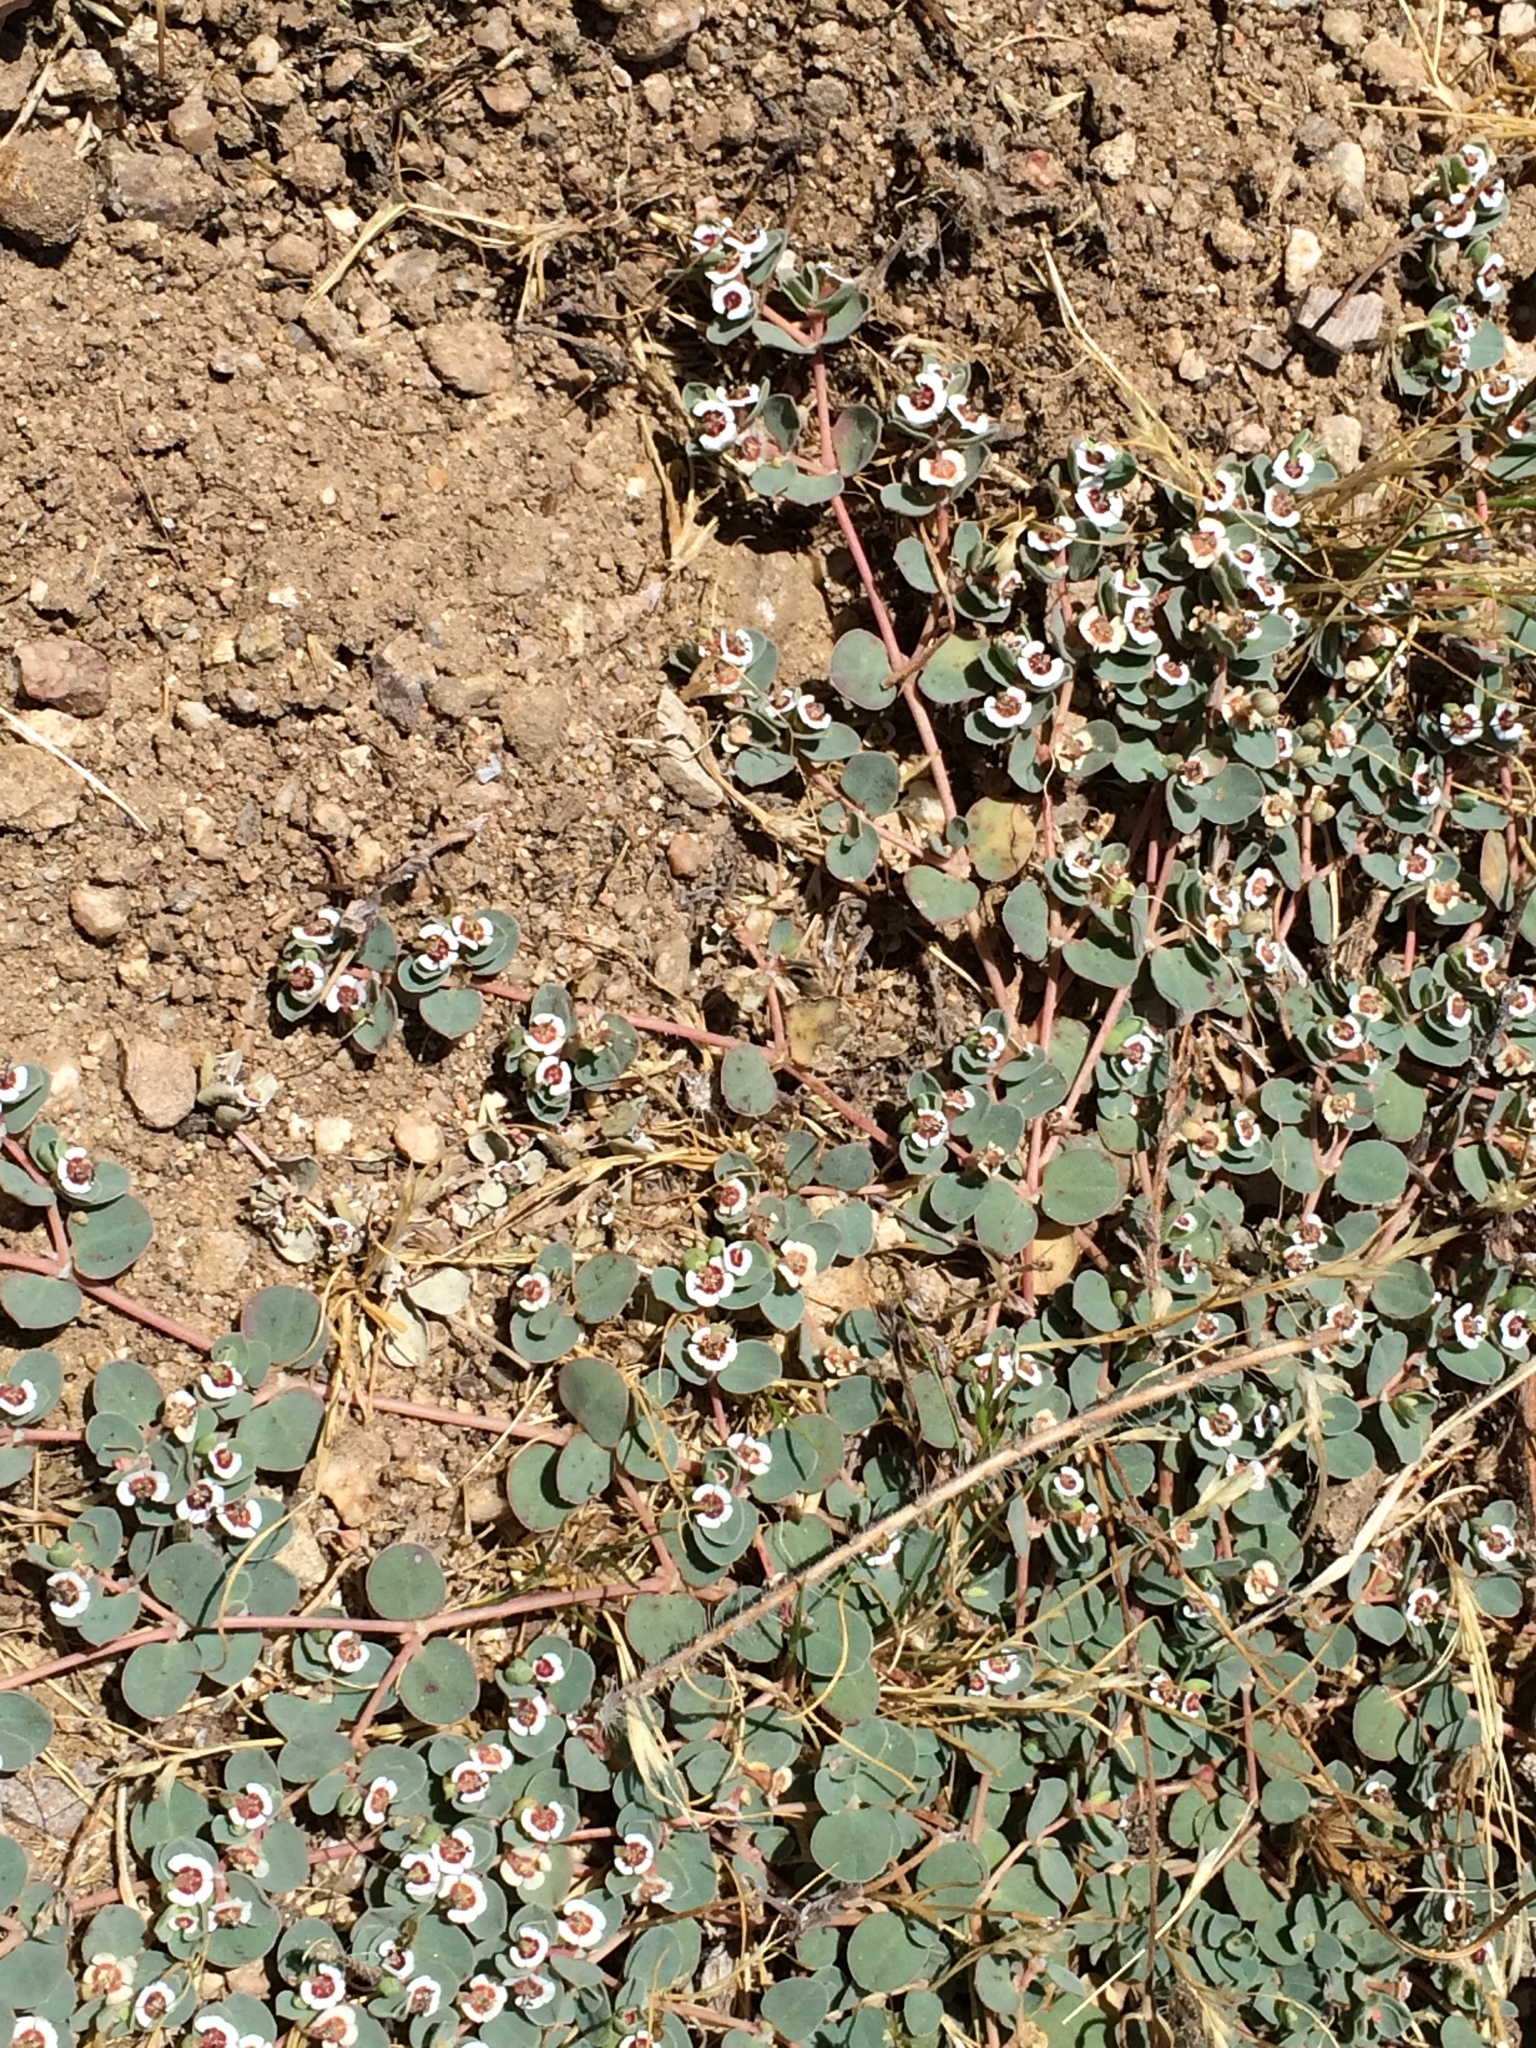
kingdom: Plantae
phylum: Tracheophyta
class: Magnoliopsida
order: Malpighiales
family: Euphorbiaceae
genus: Euphorbia
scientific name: Euphorbia albomarginata
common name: Whitemargin sandmat
